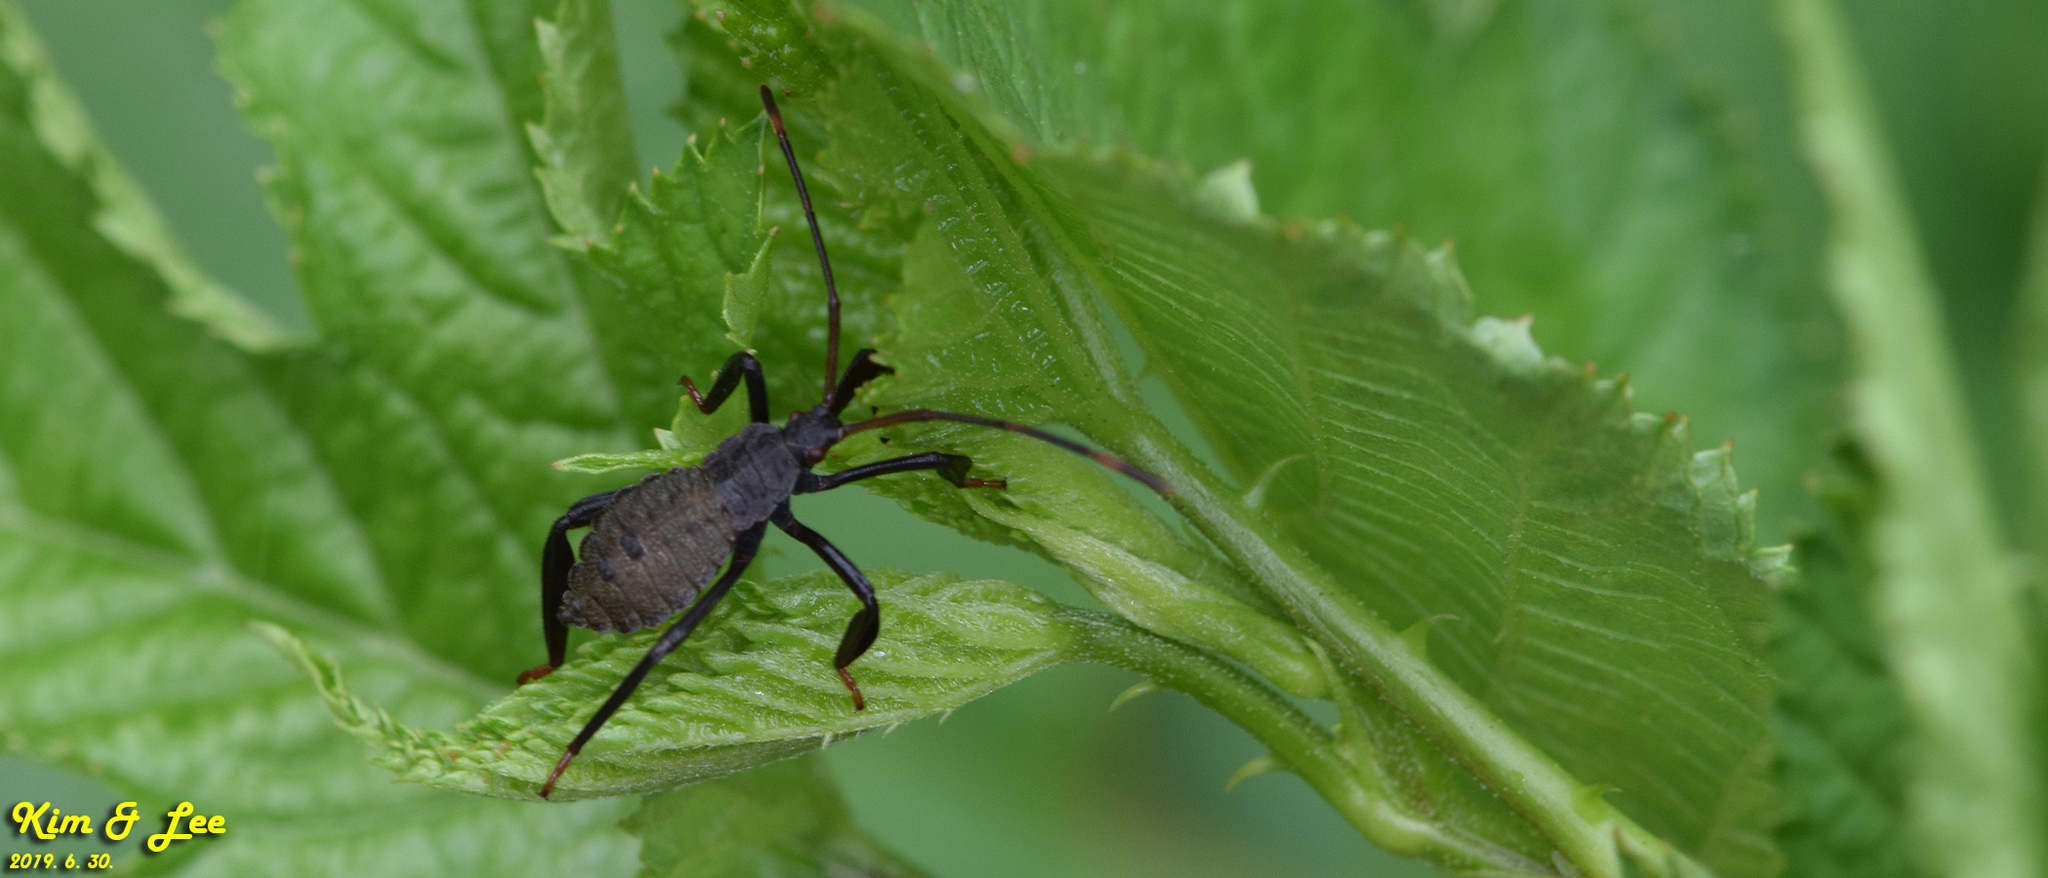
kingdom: Animalia
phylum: Arthropoda
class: Insecta
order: Hemiptera
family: Coreidae
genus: Molipteryx
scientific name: Molipteryx fuliginosa
